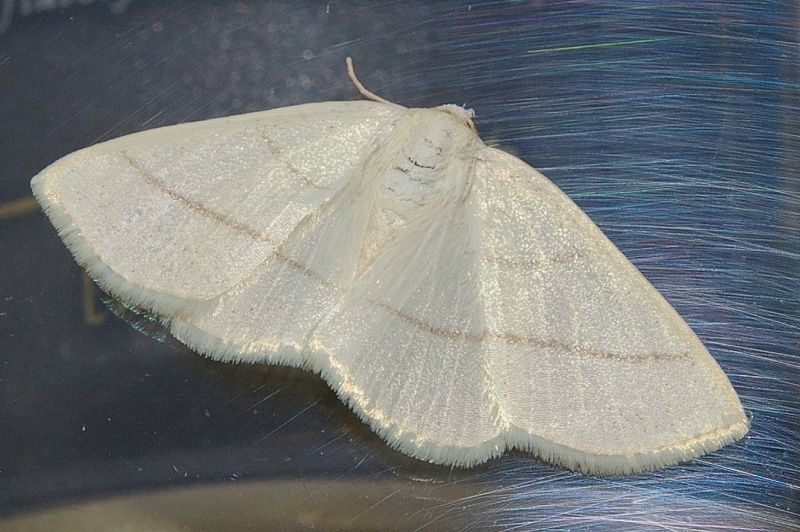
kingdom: Animalia
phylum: Arthropoda
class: Insecta
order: Lepidoptera
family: Geometridae
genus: Parabapta
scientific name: Parabapta clarissa
